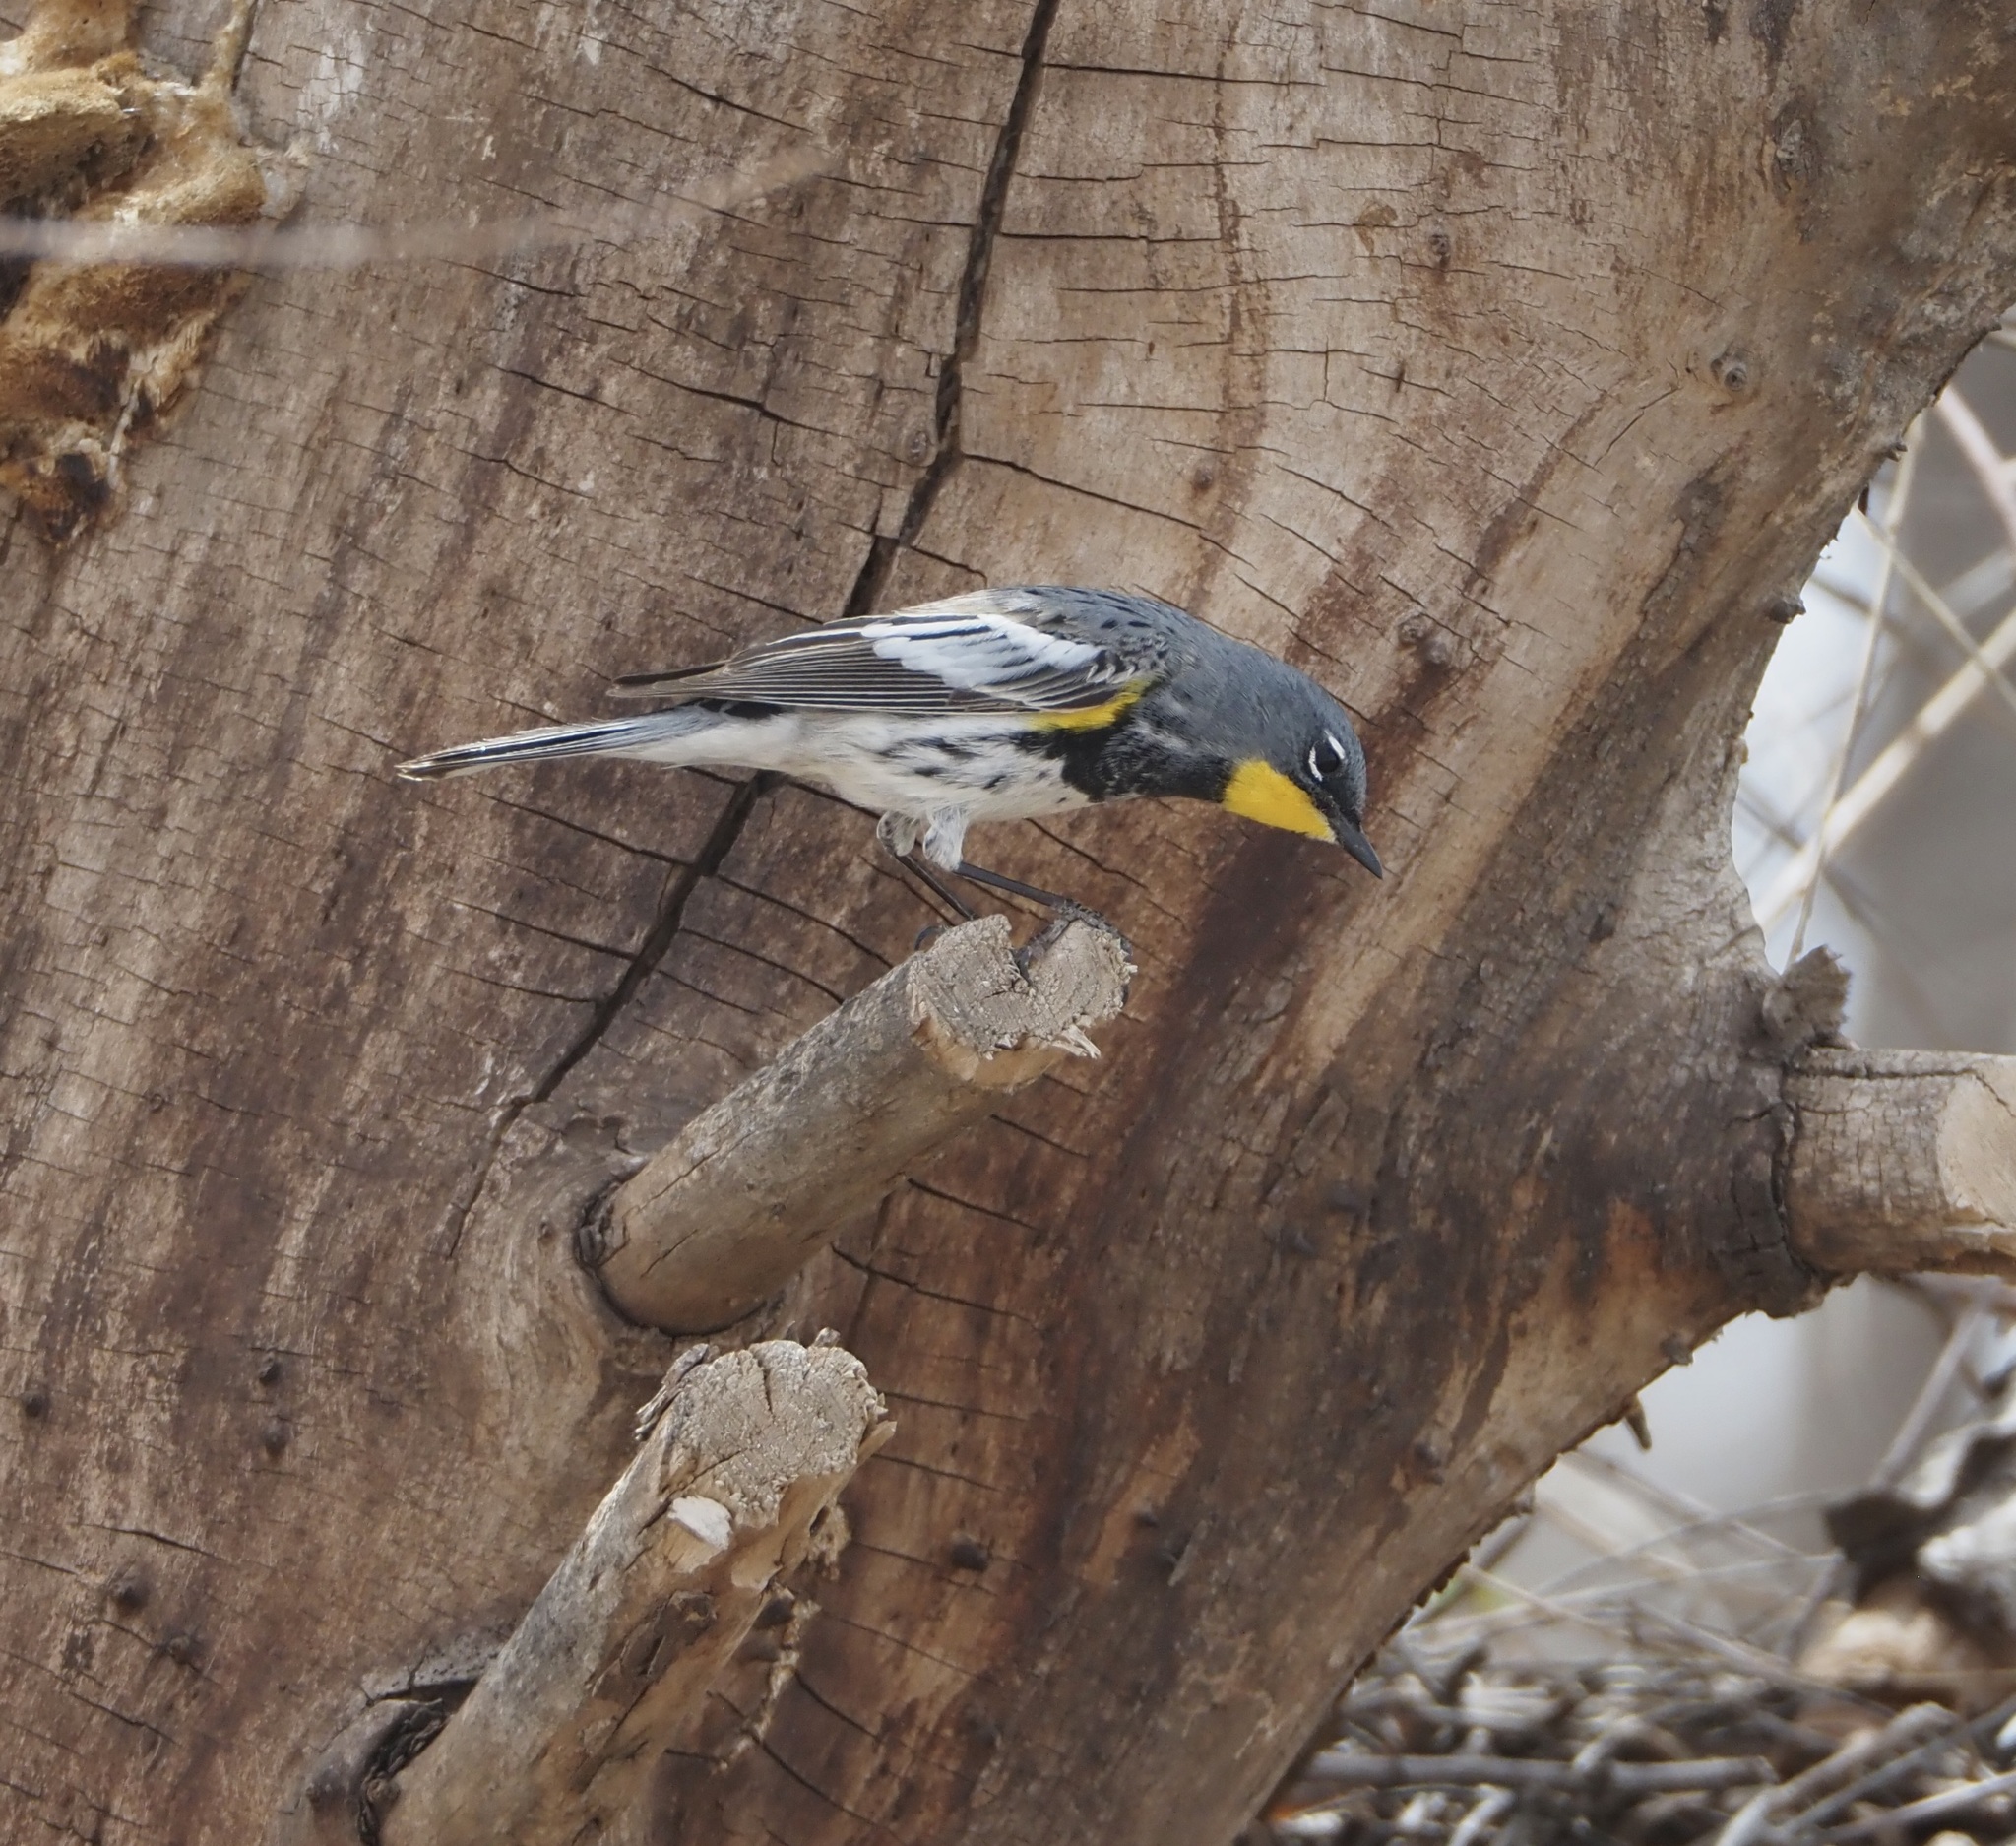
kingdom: Animalia
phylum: Chordata
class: Aves
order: Passeriformes
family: Parulidae
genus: Setophaga
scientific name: Setophaga auduboni
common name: Audubon's warbler
